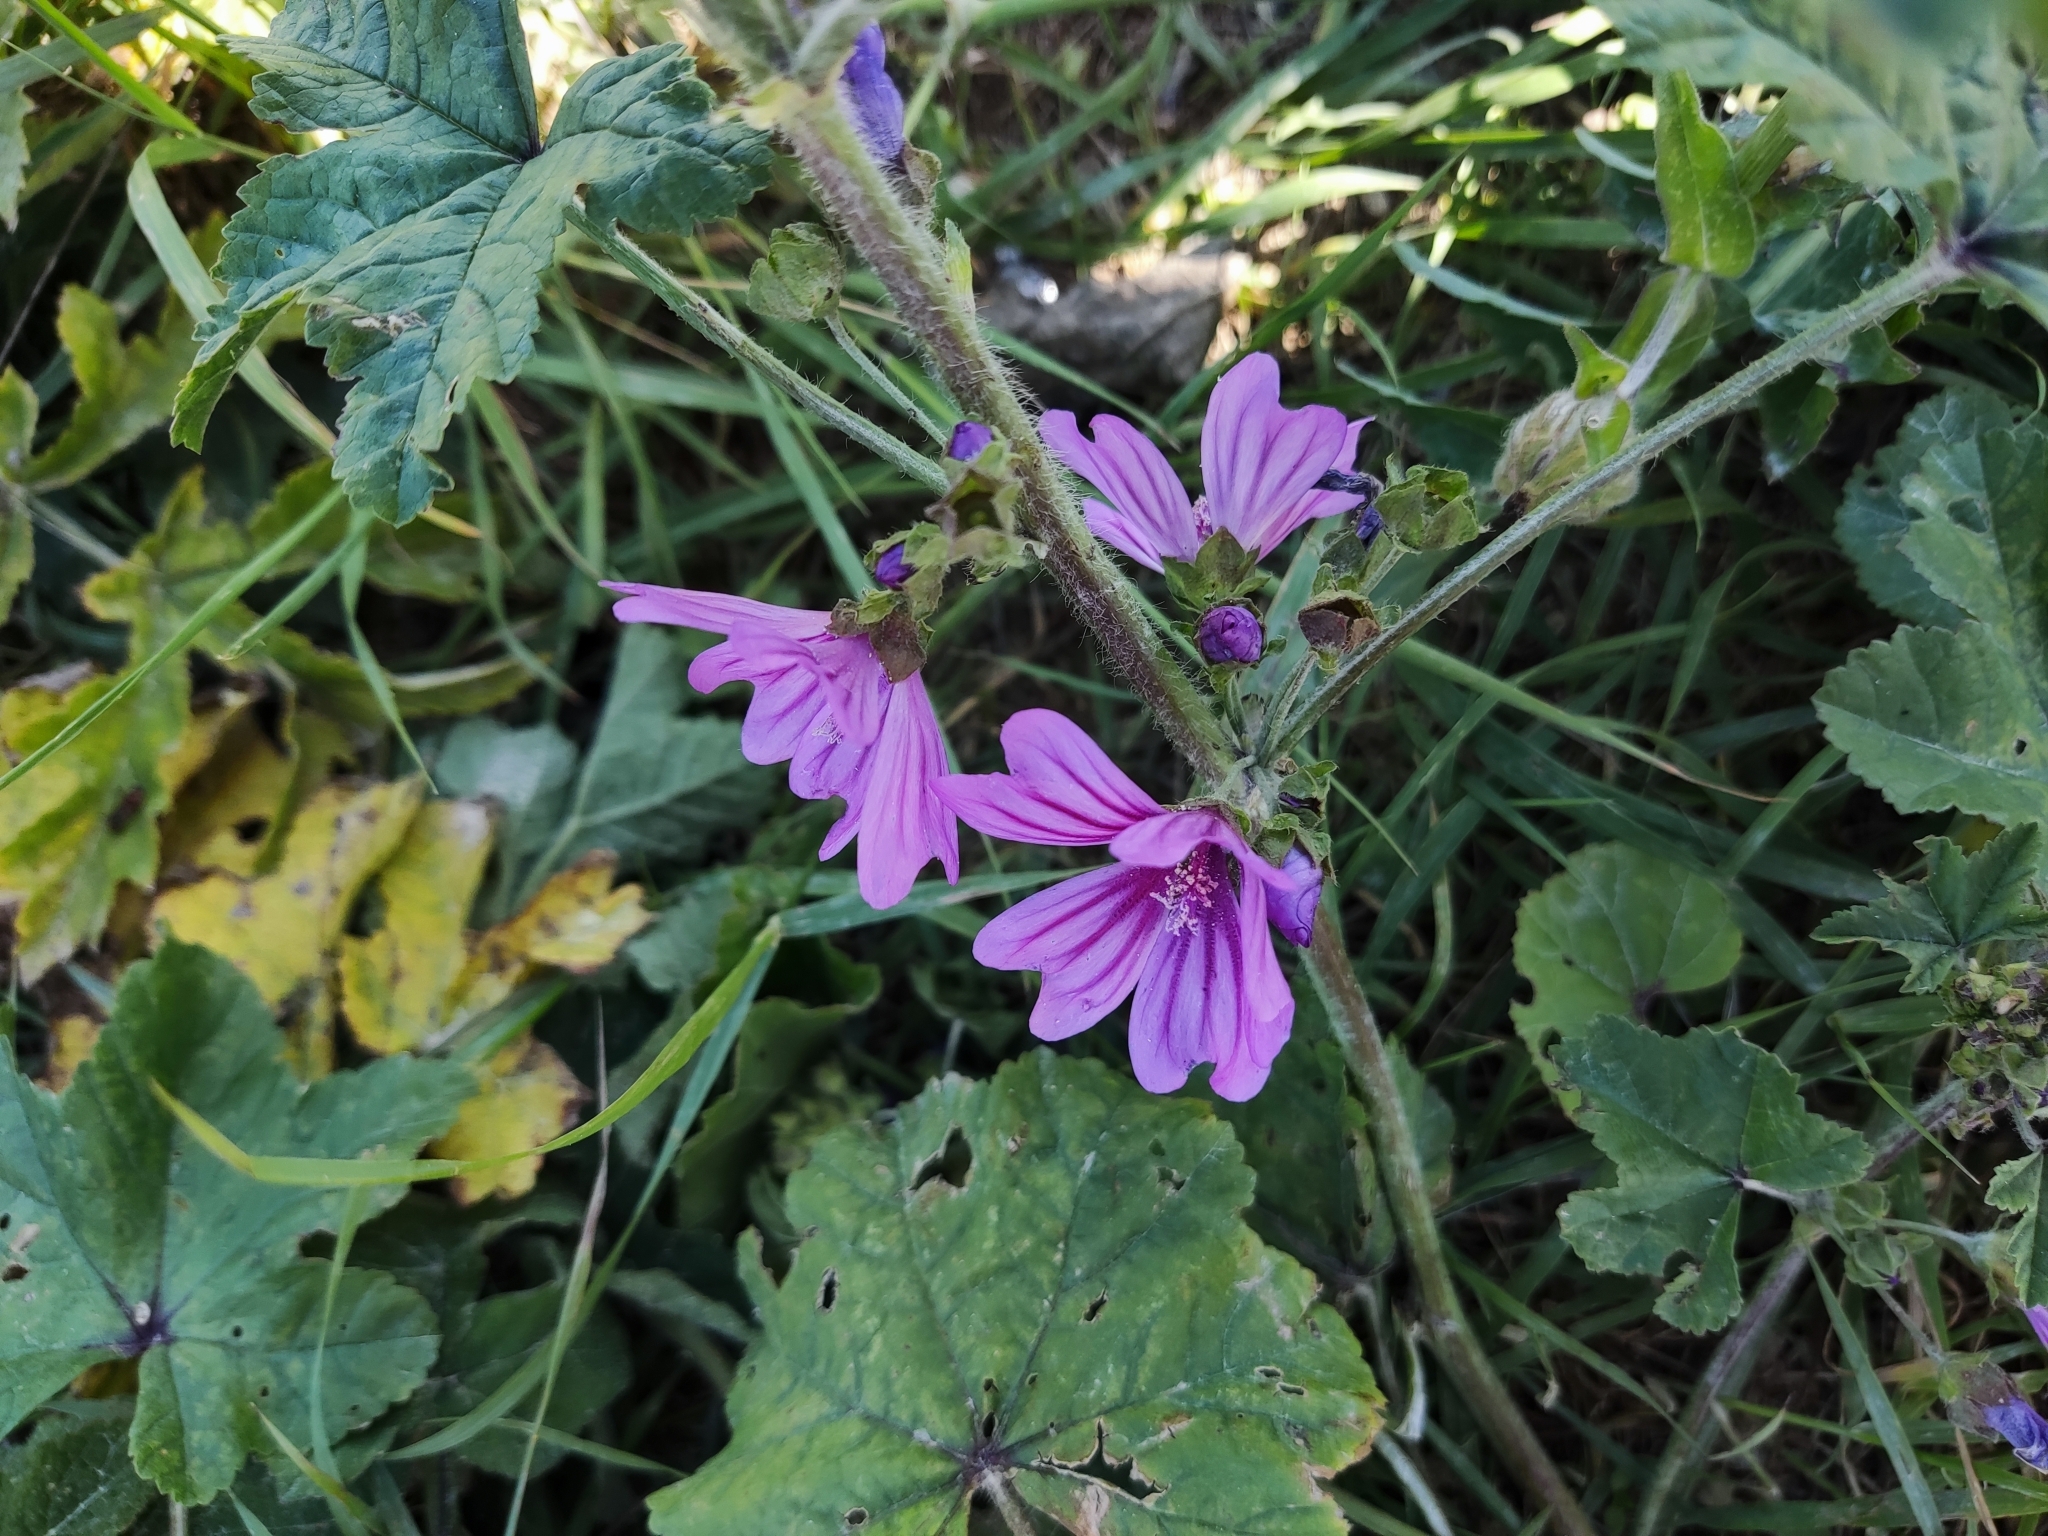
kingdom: Plantae
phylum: Tracheophyta
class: Magnoliopsida
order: Malvales
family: Malvaceae
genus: Malva
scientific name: Malva sylvestris
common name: Common mallow
